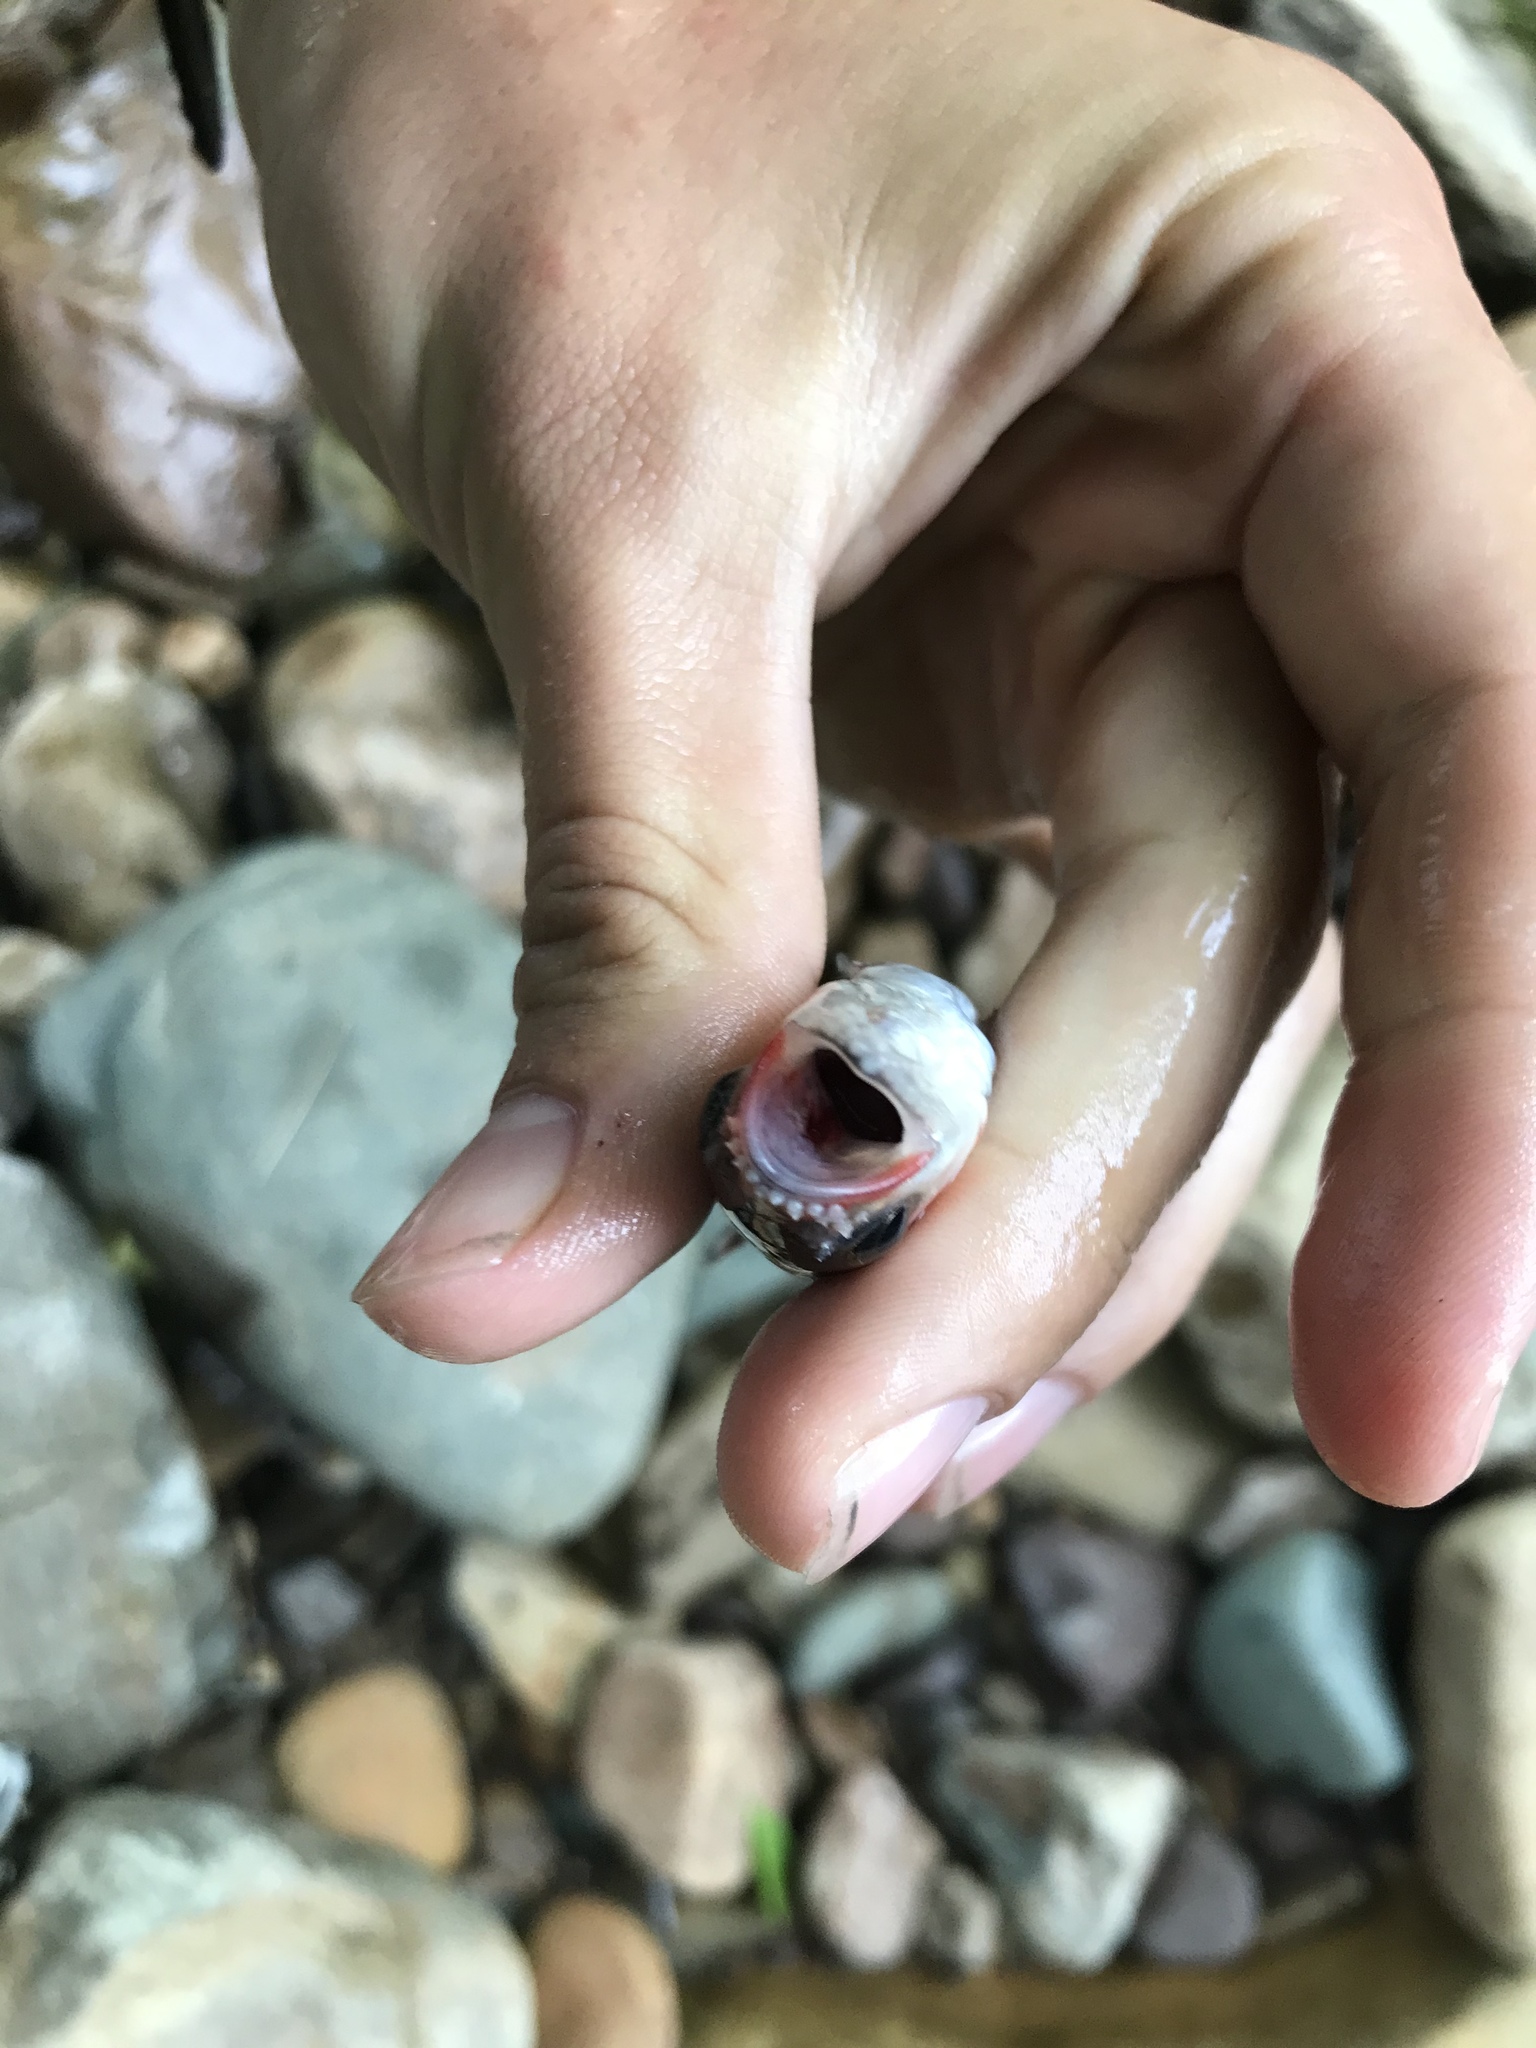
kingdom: Animalia
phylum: Chordata
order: Cypriniformes
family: Cyprinidae
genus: Luxilus
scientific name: Luxilus
